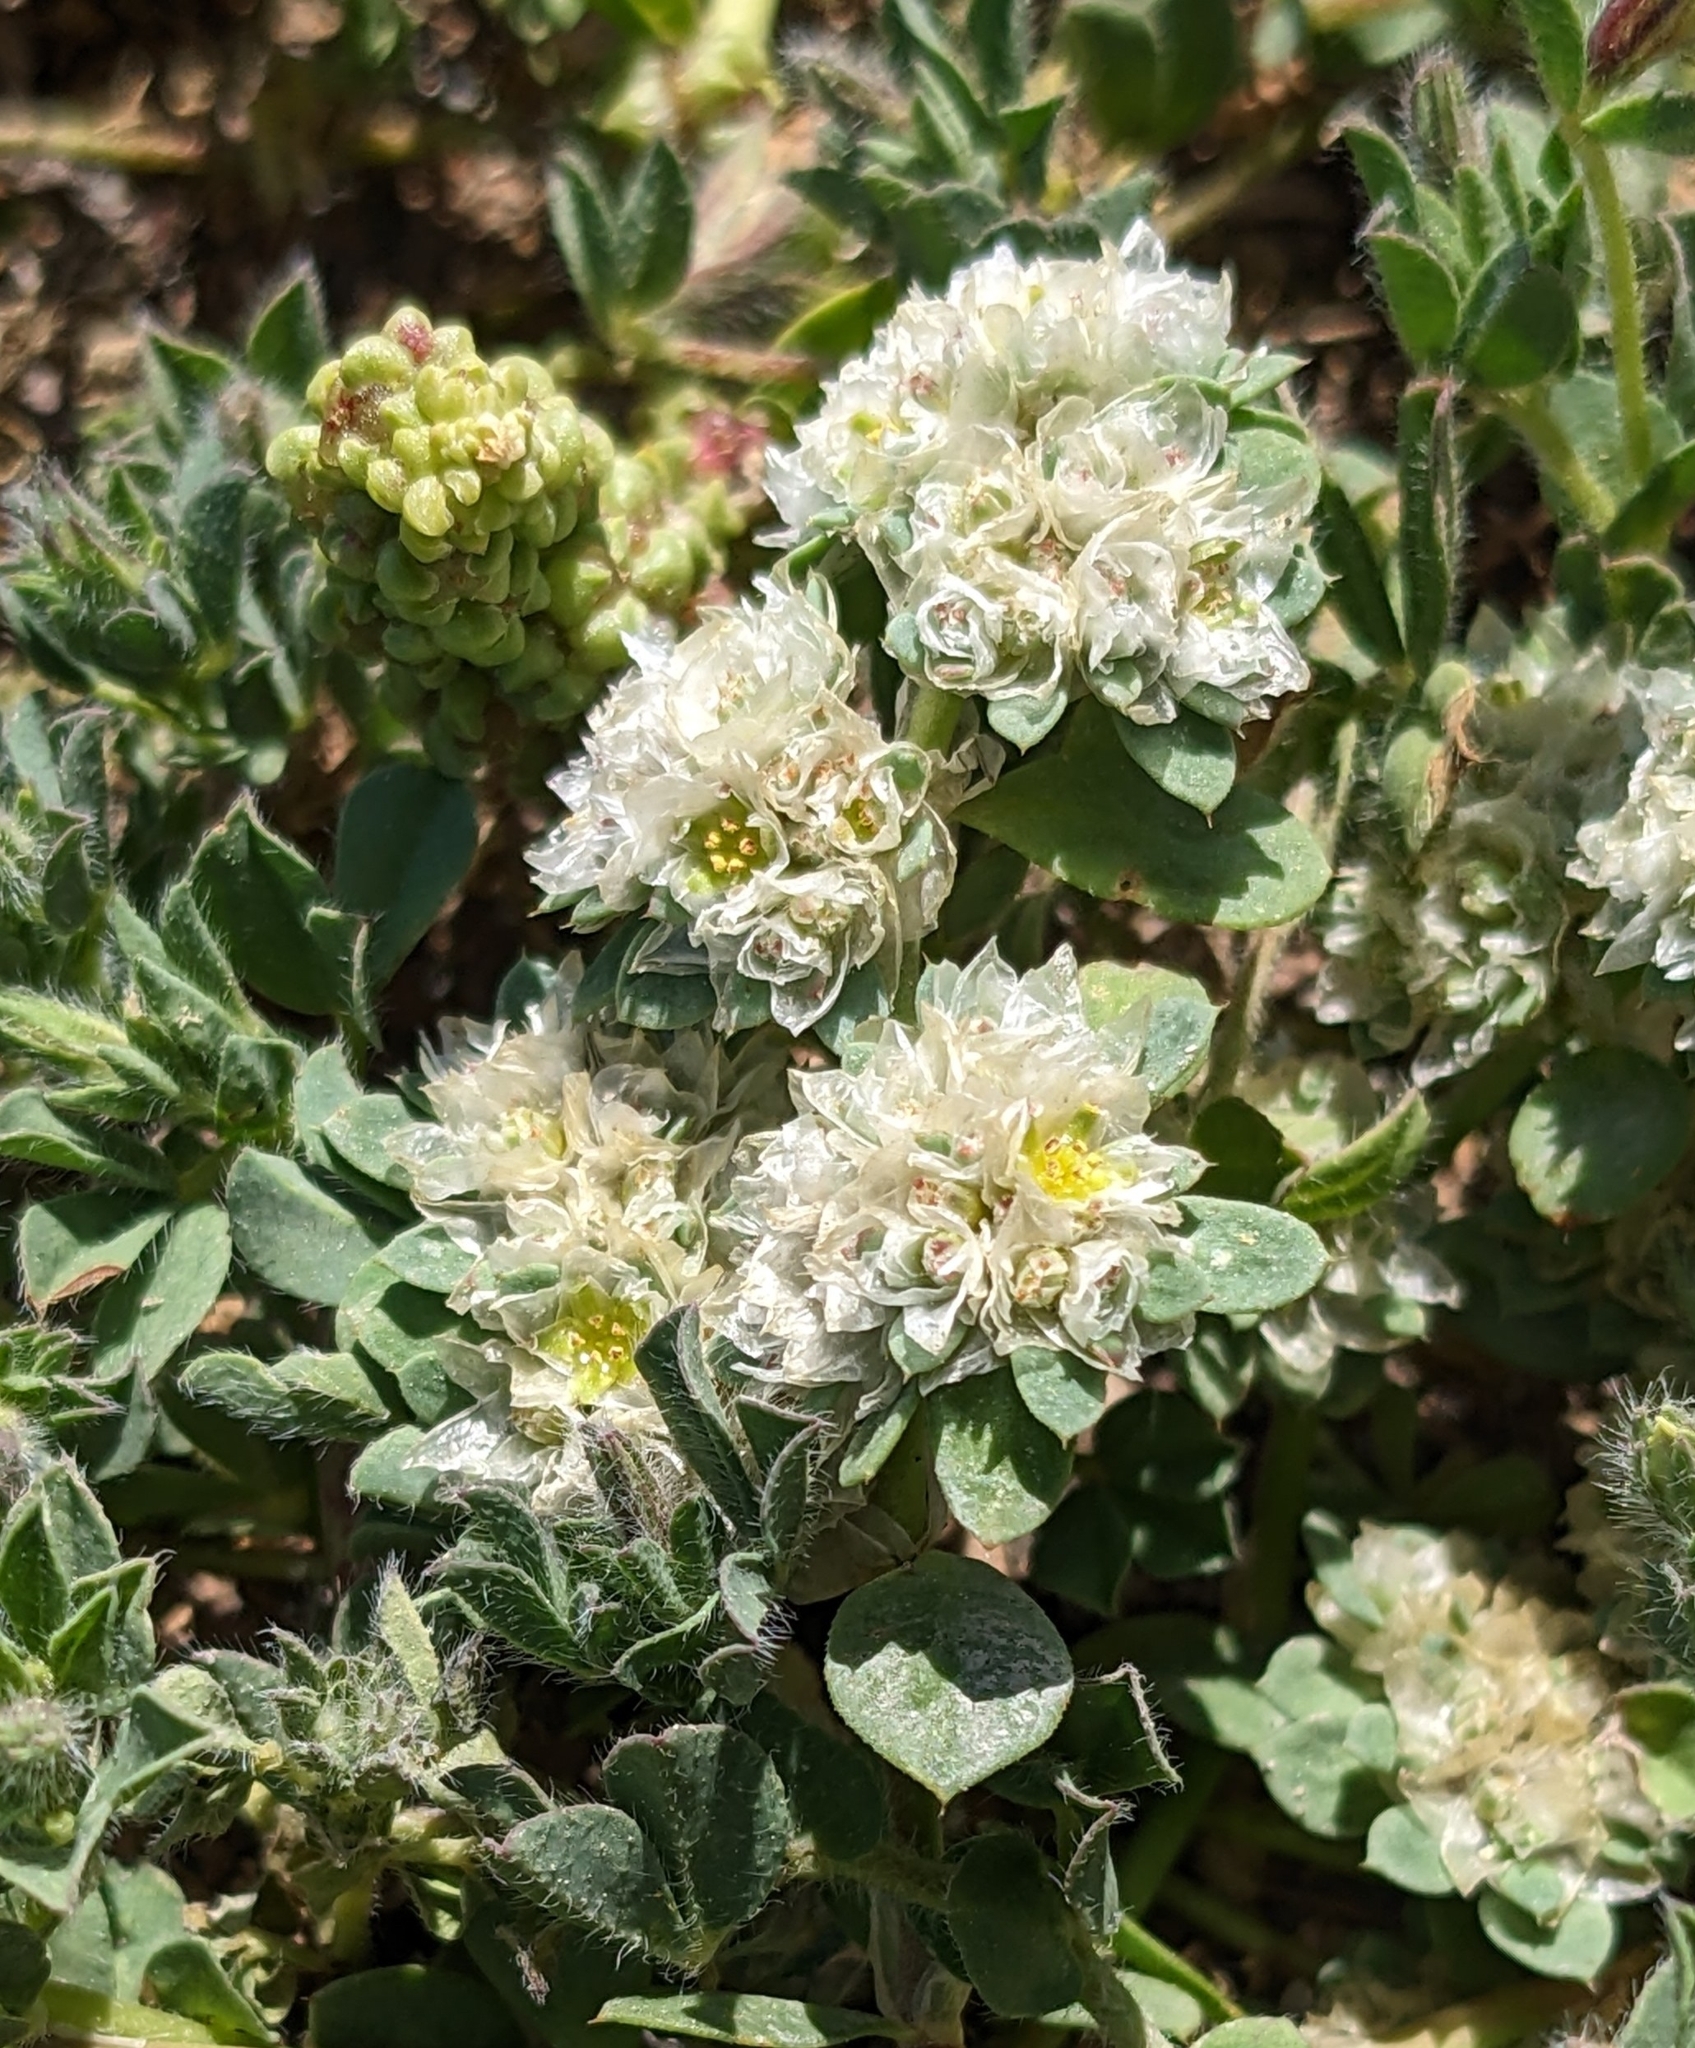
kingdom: Plantae
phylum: Tracheophyta
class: Magnoliopsida
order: Caryophyllales
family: Caryophyllaceae
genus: Paronychia
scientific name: Paronychia argentea
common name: Silver nailroot
